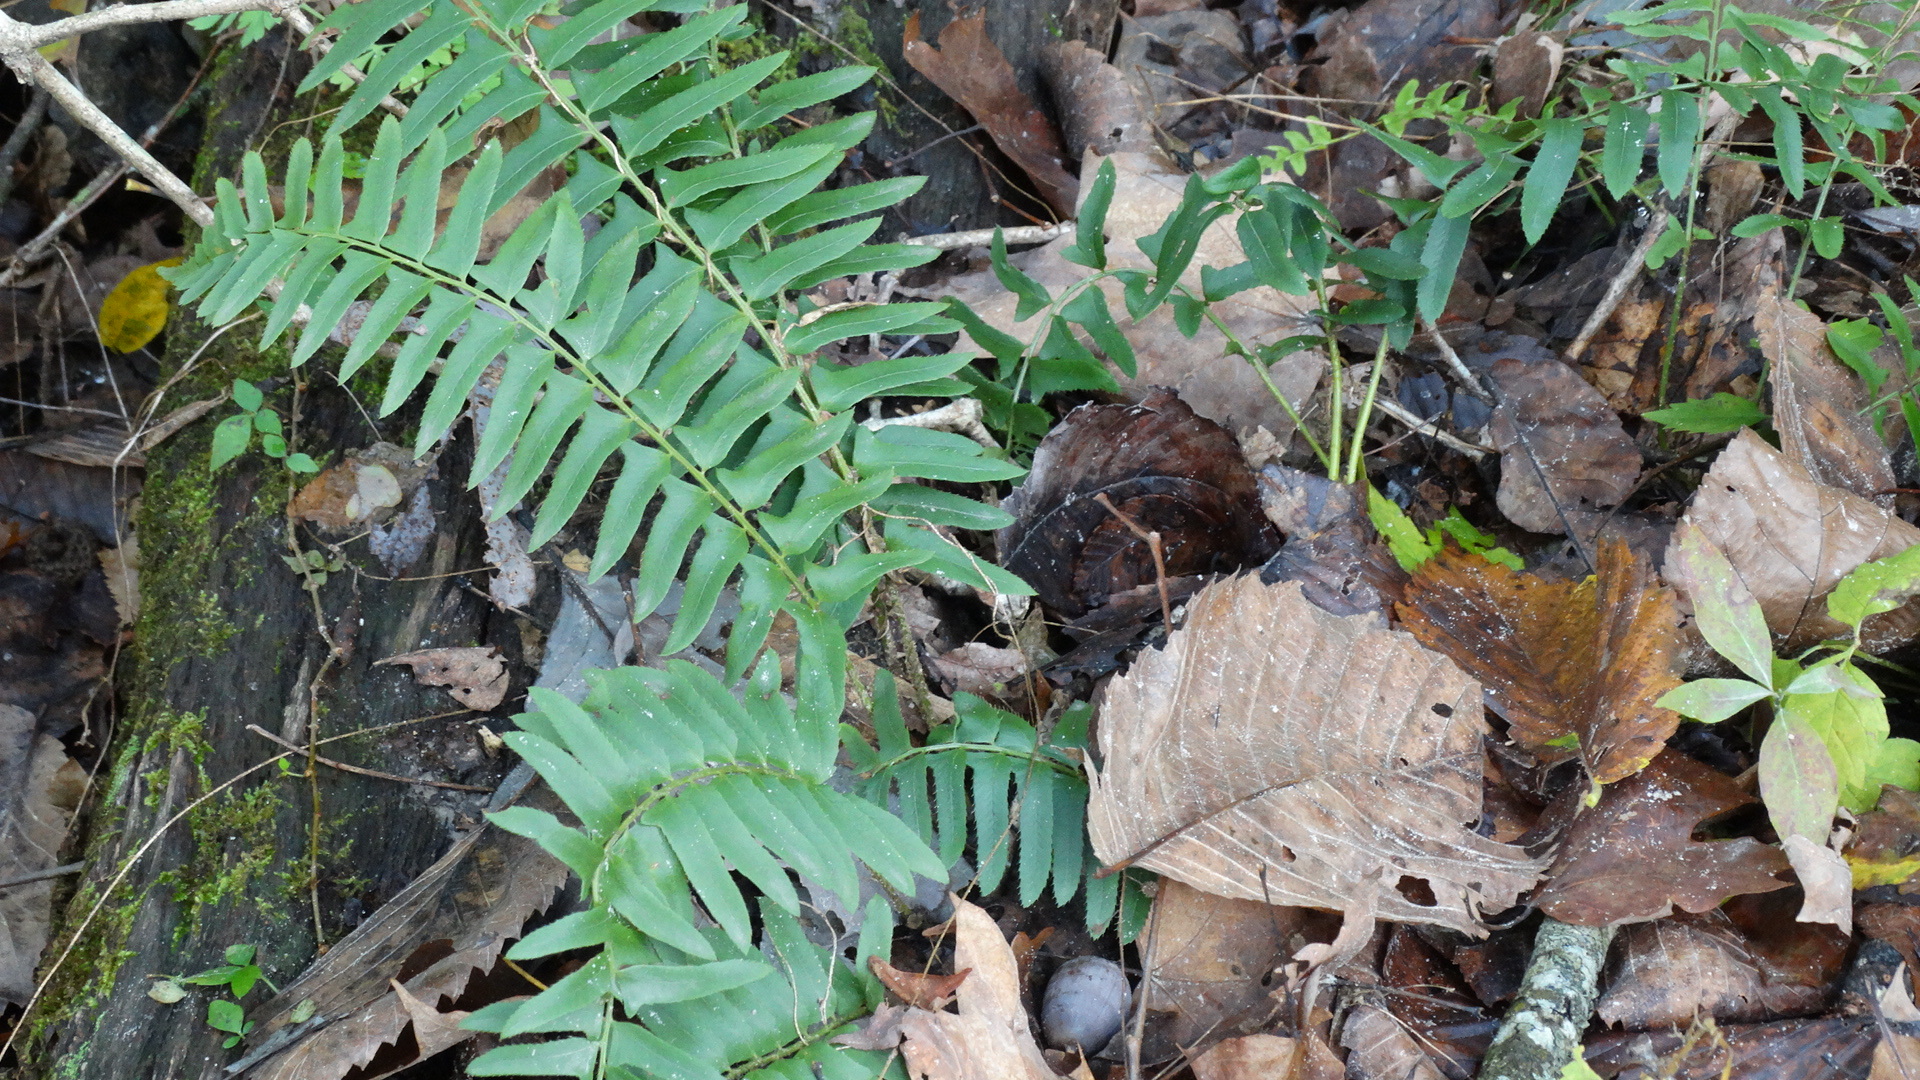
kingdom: Plantae
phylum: Tracheophyta
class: Polypodiopsida
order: Polypodiales
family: Dryopteridaceae
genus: Polystichum
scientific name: Polystichum acrostichoides
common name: Christmas fern
